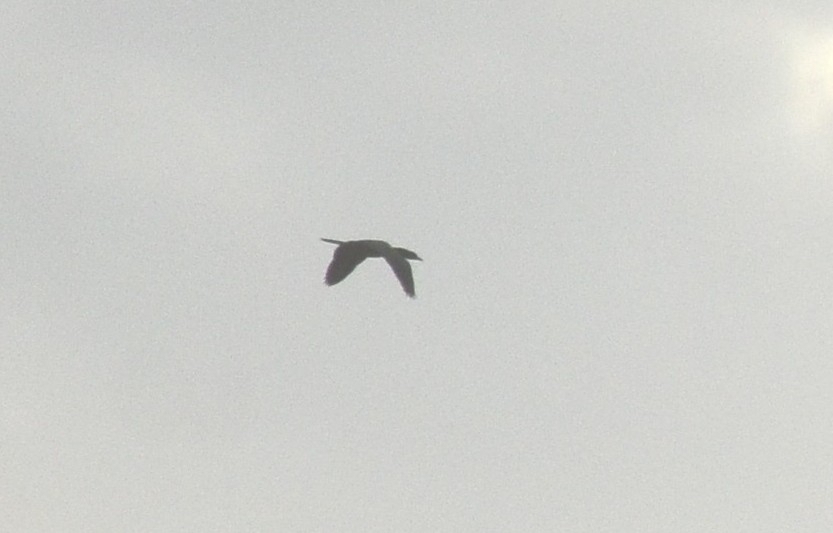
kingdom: Animalia
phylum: Chordata
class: Aves
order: Suliformes
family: Phalacrocoracidae
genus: Microcarbo
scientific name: Microcarbo niger
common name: Little cormorant
